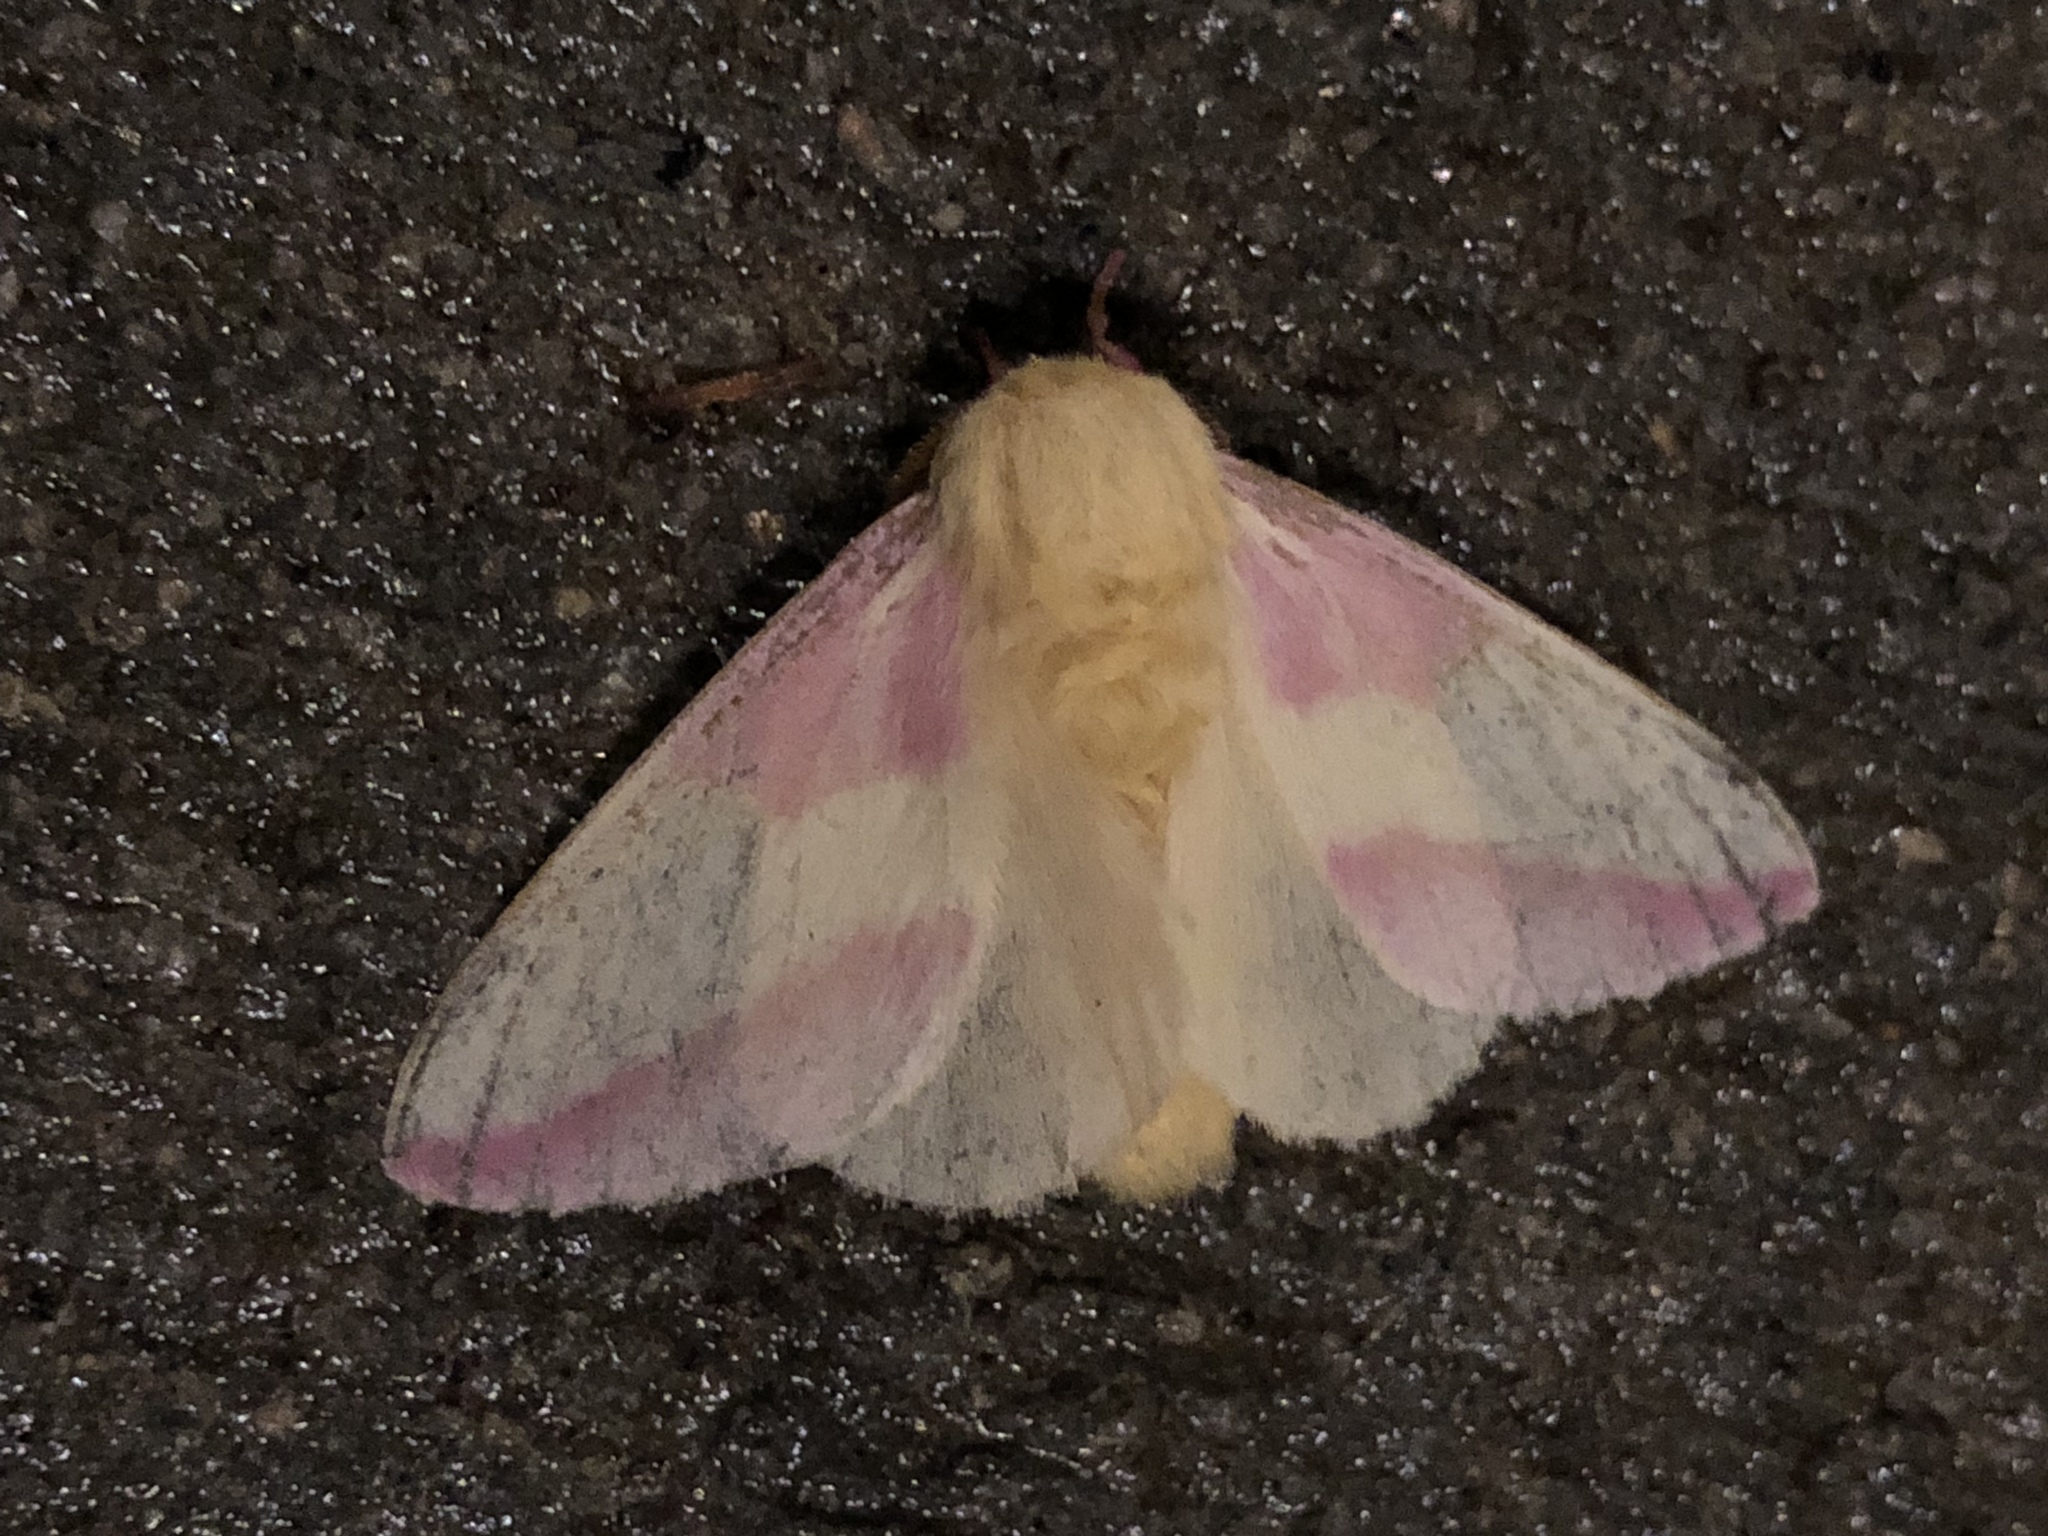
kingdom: Animalia
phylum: Arthropoda
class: Insecta
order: Lepidoptera
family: Saturniidae
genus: Dryocampa
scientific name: Dryocampa rubicunda
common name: Rosy maple moth
